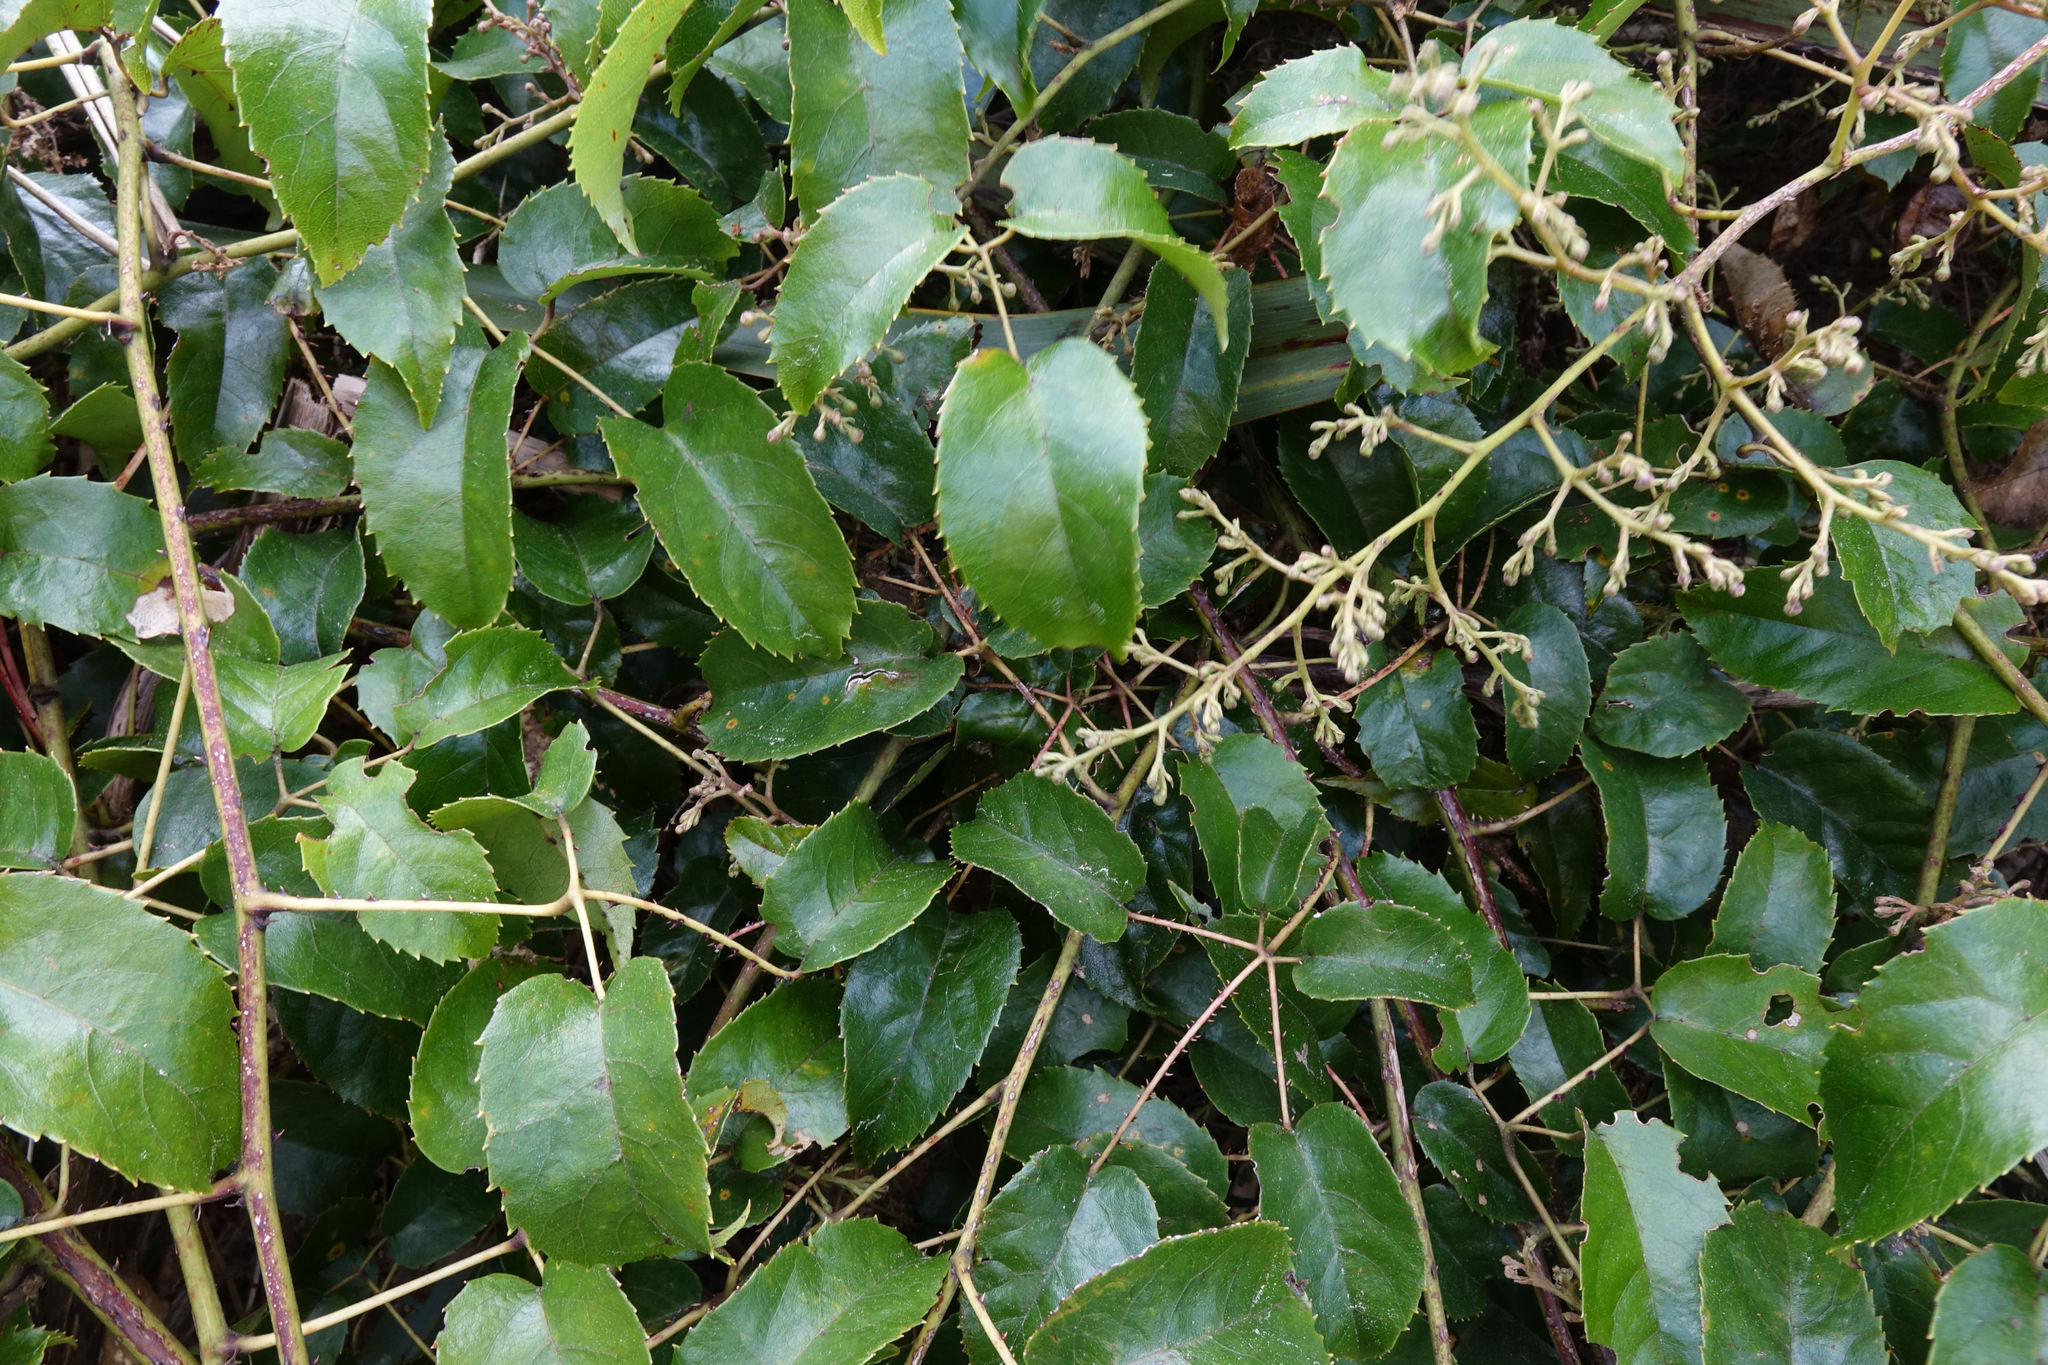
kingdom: Plantae
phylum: Tracheophyta
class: Magnoliopsida
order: Rosales
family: Rosaceae
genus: Rubus
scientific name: Rubus cissoides
